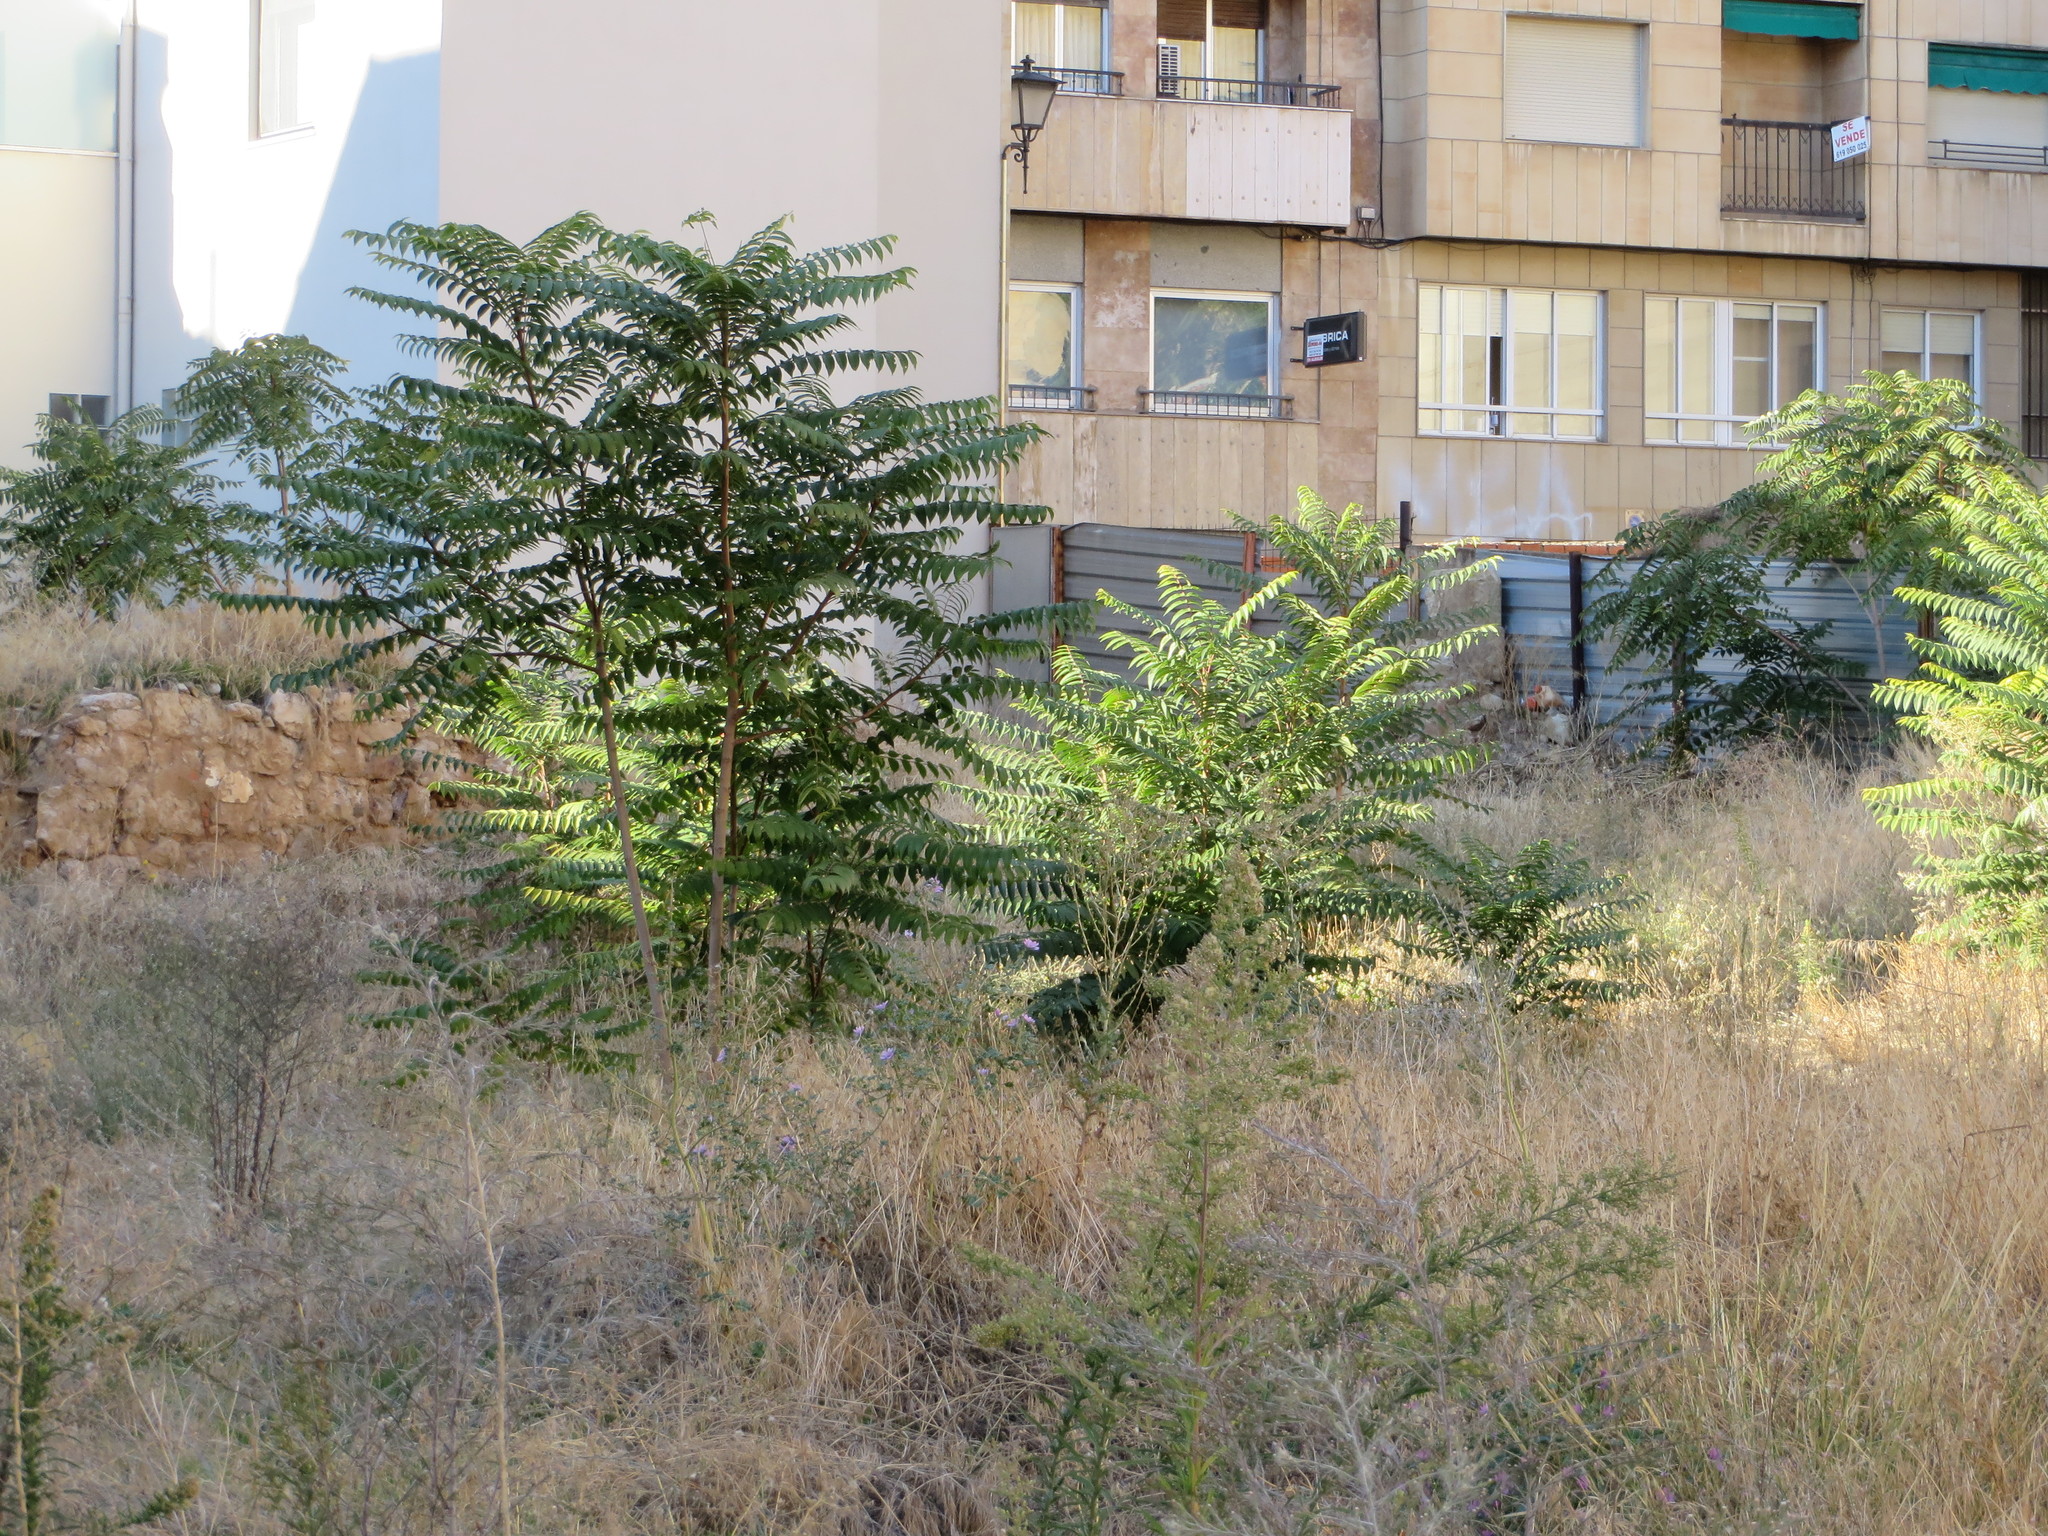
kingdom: Plantae
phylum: Tracheophyta
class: Magnoliopsida
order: Sapindales
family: Simaroubaceae
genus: Ailanthus
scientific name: Ailanthus altissima
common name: Tree-of-heaven
